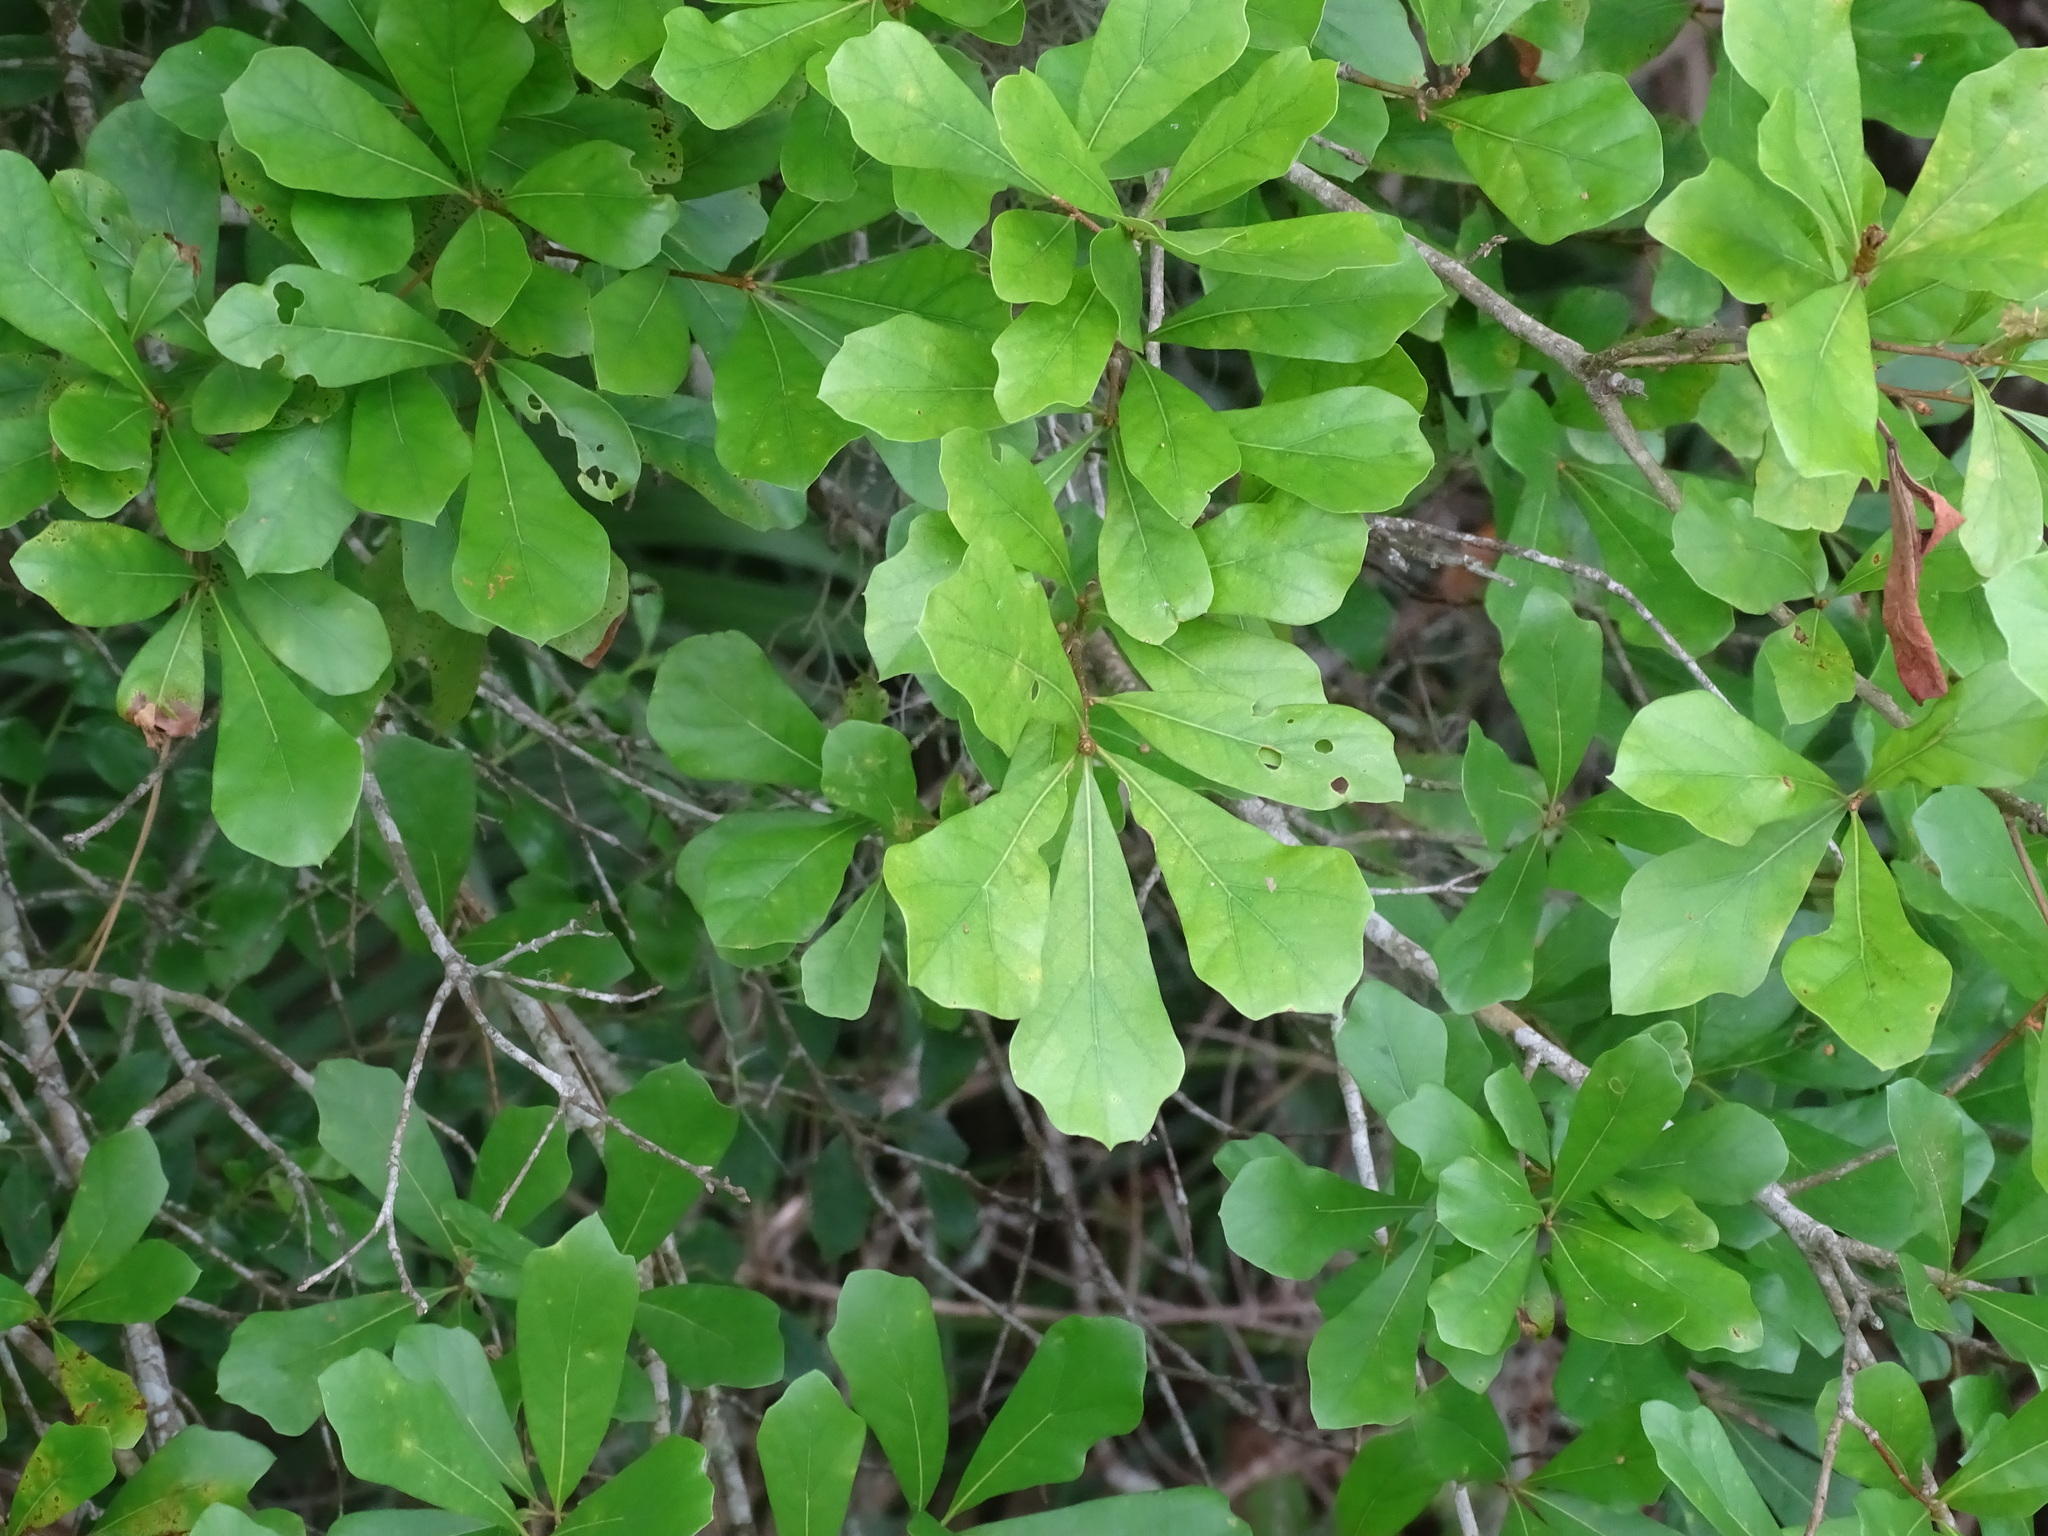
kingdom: Plantae
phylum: Tracheophyta
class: Magnoliopsida
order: Fagales
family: Fagaceae
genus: Quercus
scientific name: Quercus nigra
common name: Water oak
